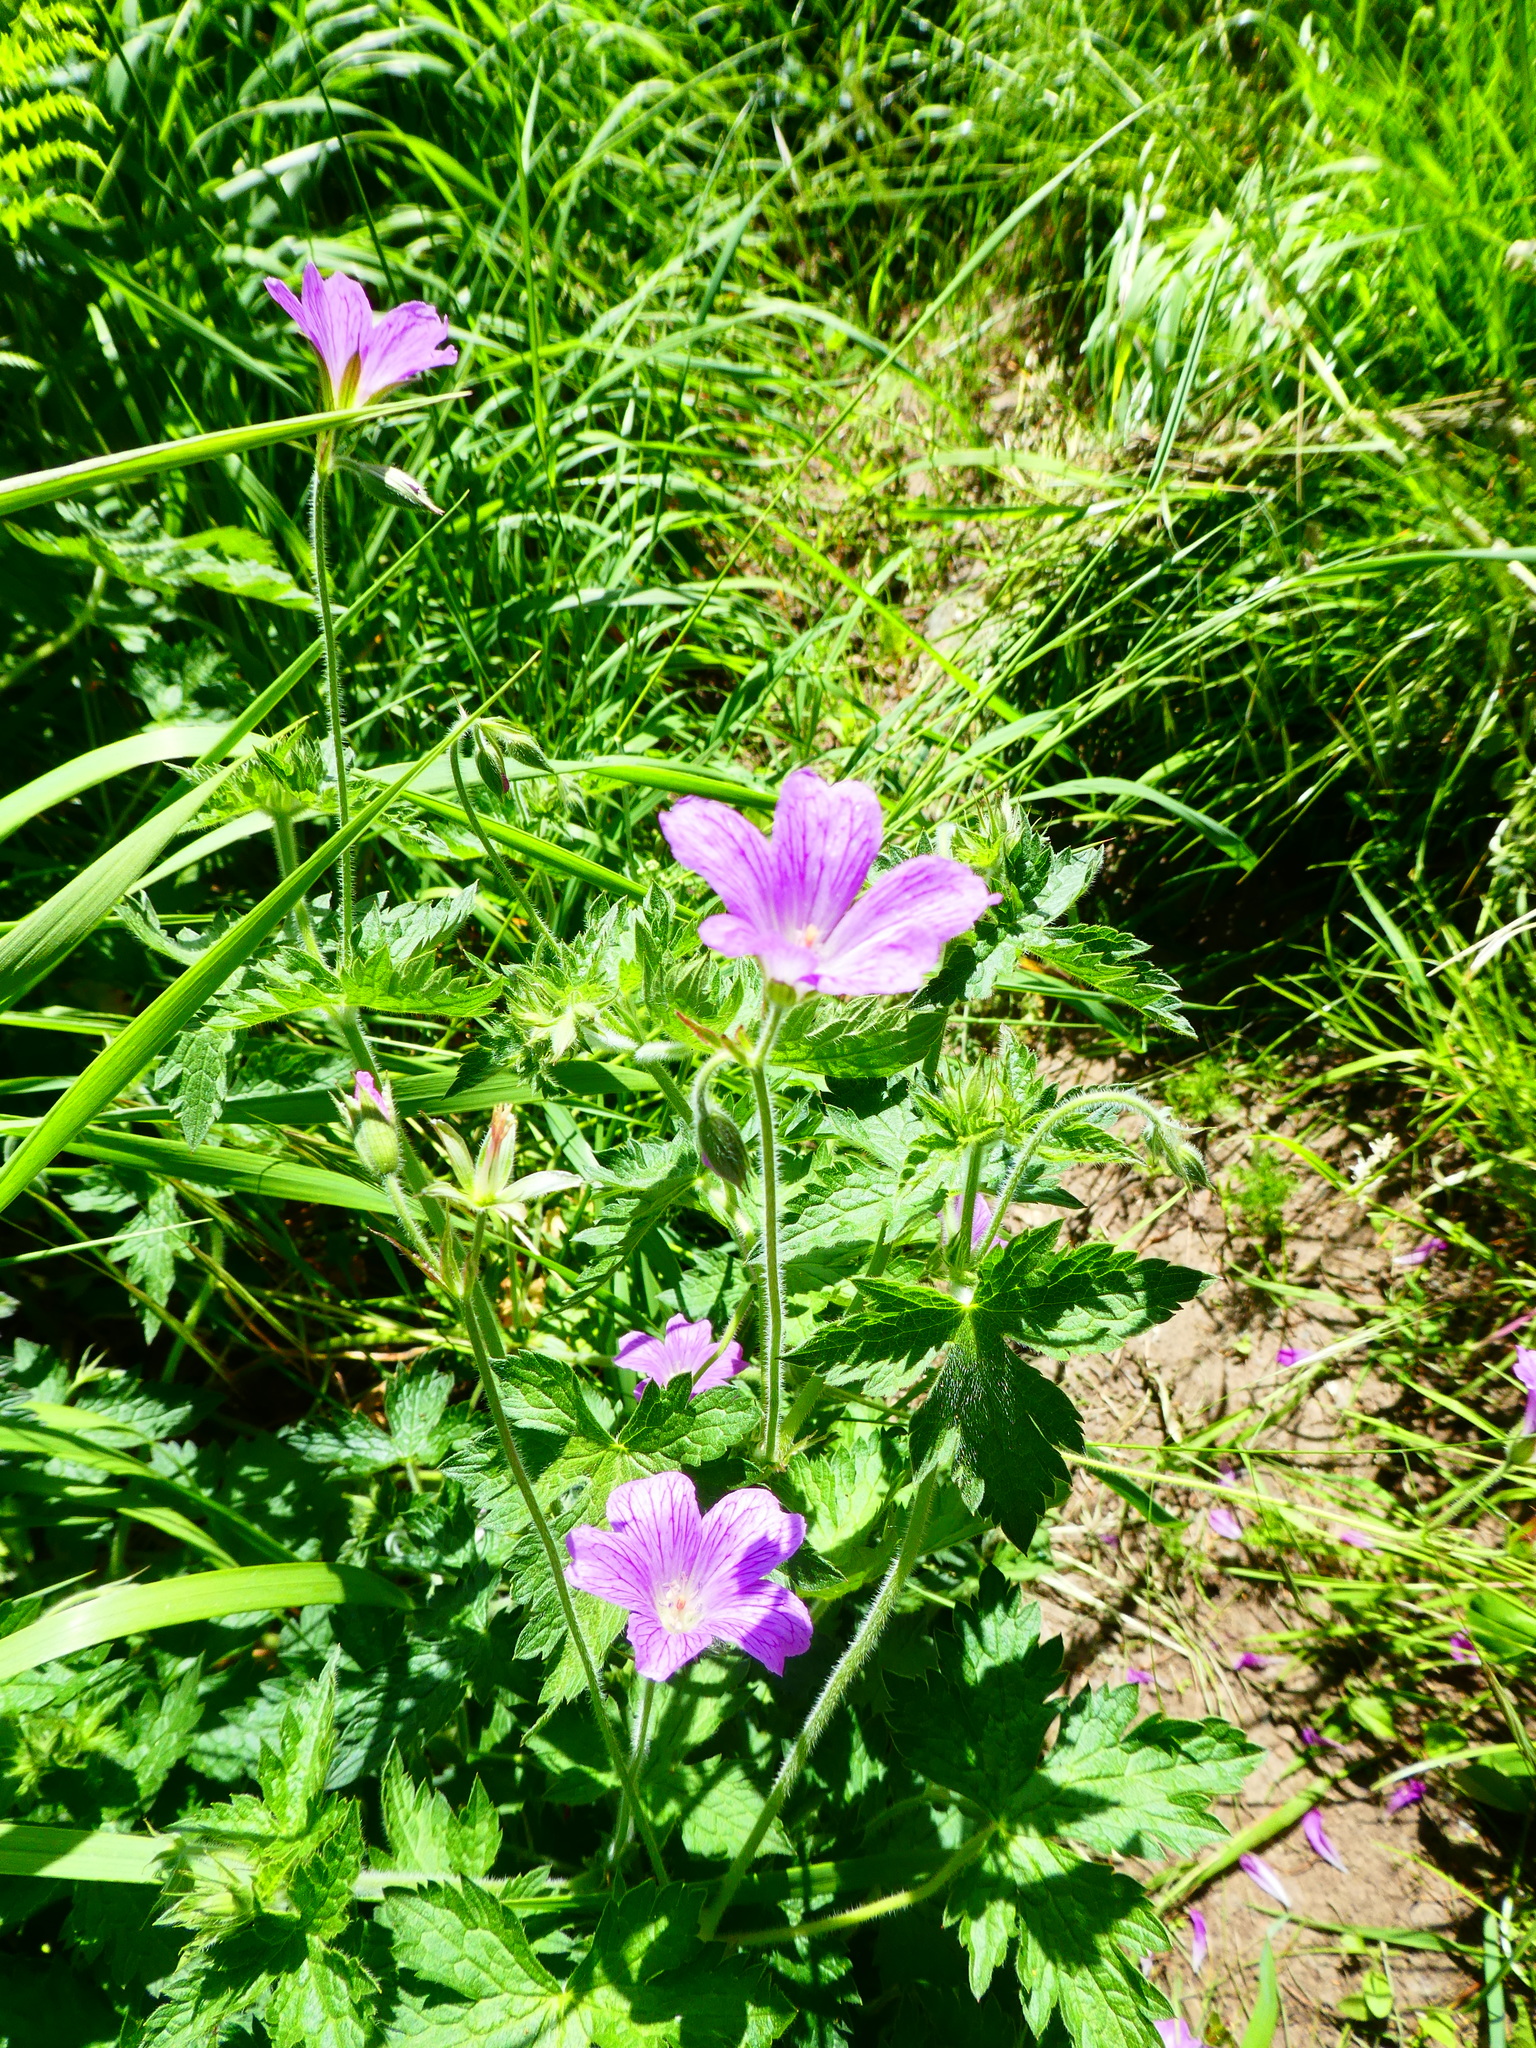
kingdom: Plantae
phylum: Tracheophyta
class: Magnoliopsida
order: Geraniales
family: Geraniaceae
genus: Geranium
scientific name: Geranium oxonianum
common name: Druce's crane's-bill
